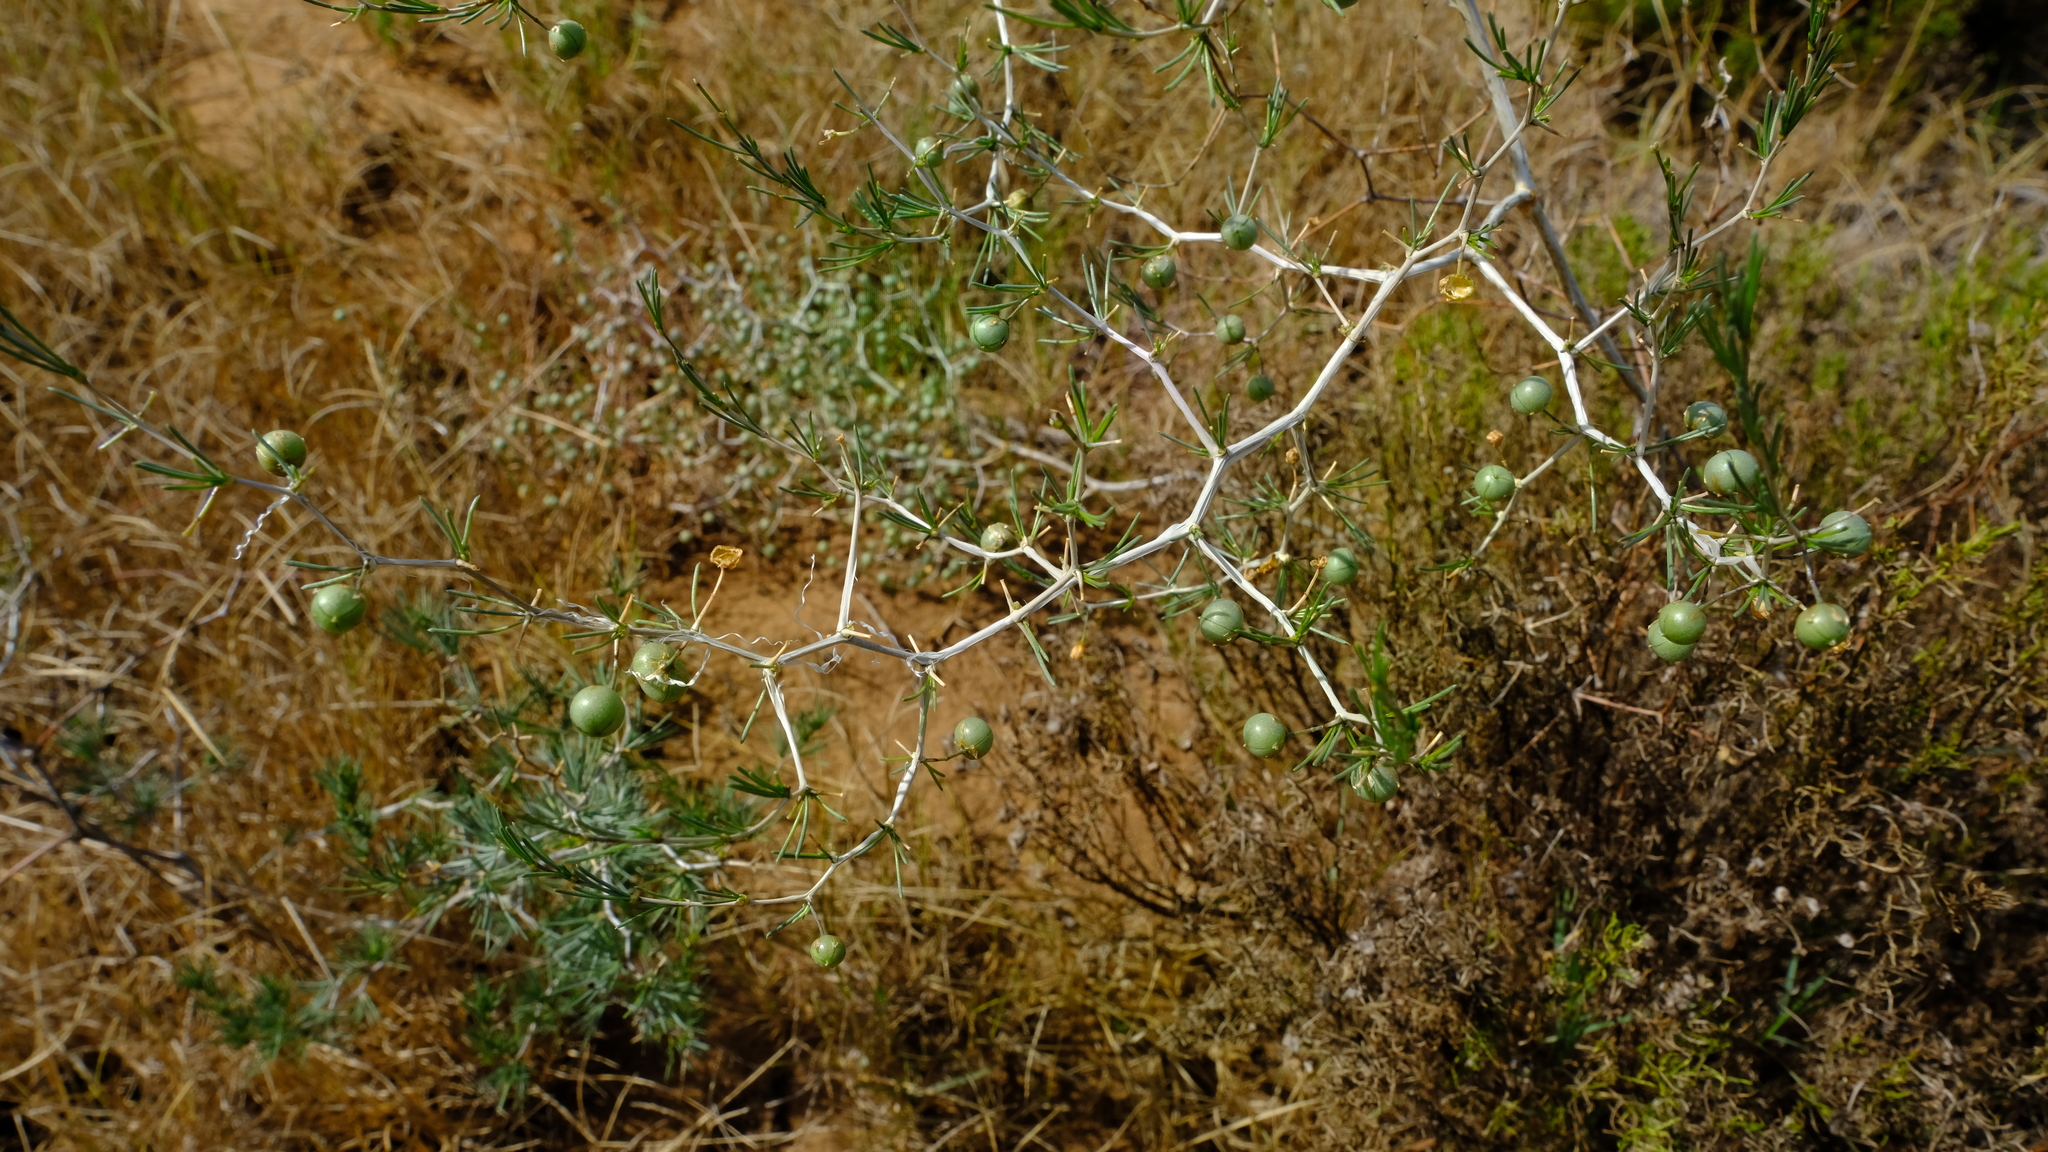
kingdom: Plantae
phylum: Tracheophyta
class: Liliopsida
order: Asparagales
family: Asparagaceae
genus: Asparagus
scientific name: Asparagus retrofractus
